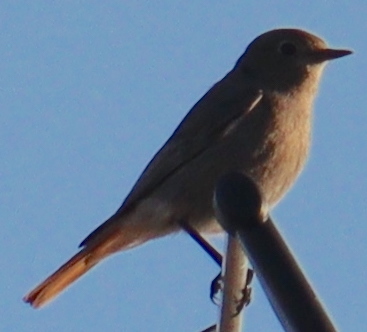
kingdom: Animalia
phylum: Chordata
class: Aves
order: Passeriformes
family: Muscicapidae
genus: Phoenicurus
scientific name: Phoenicurus ochruros
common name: Black redstart
